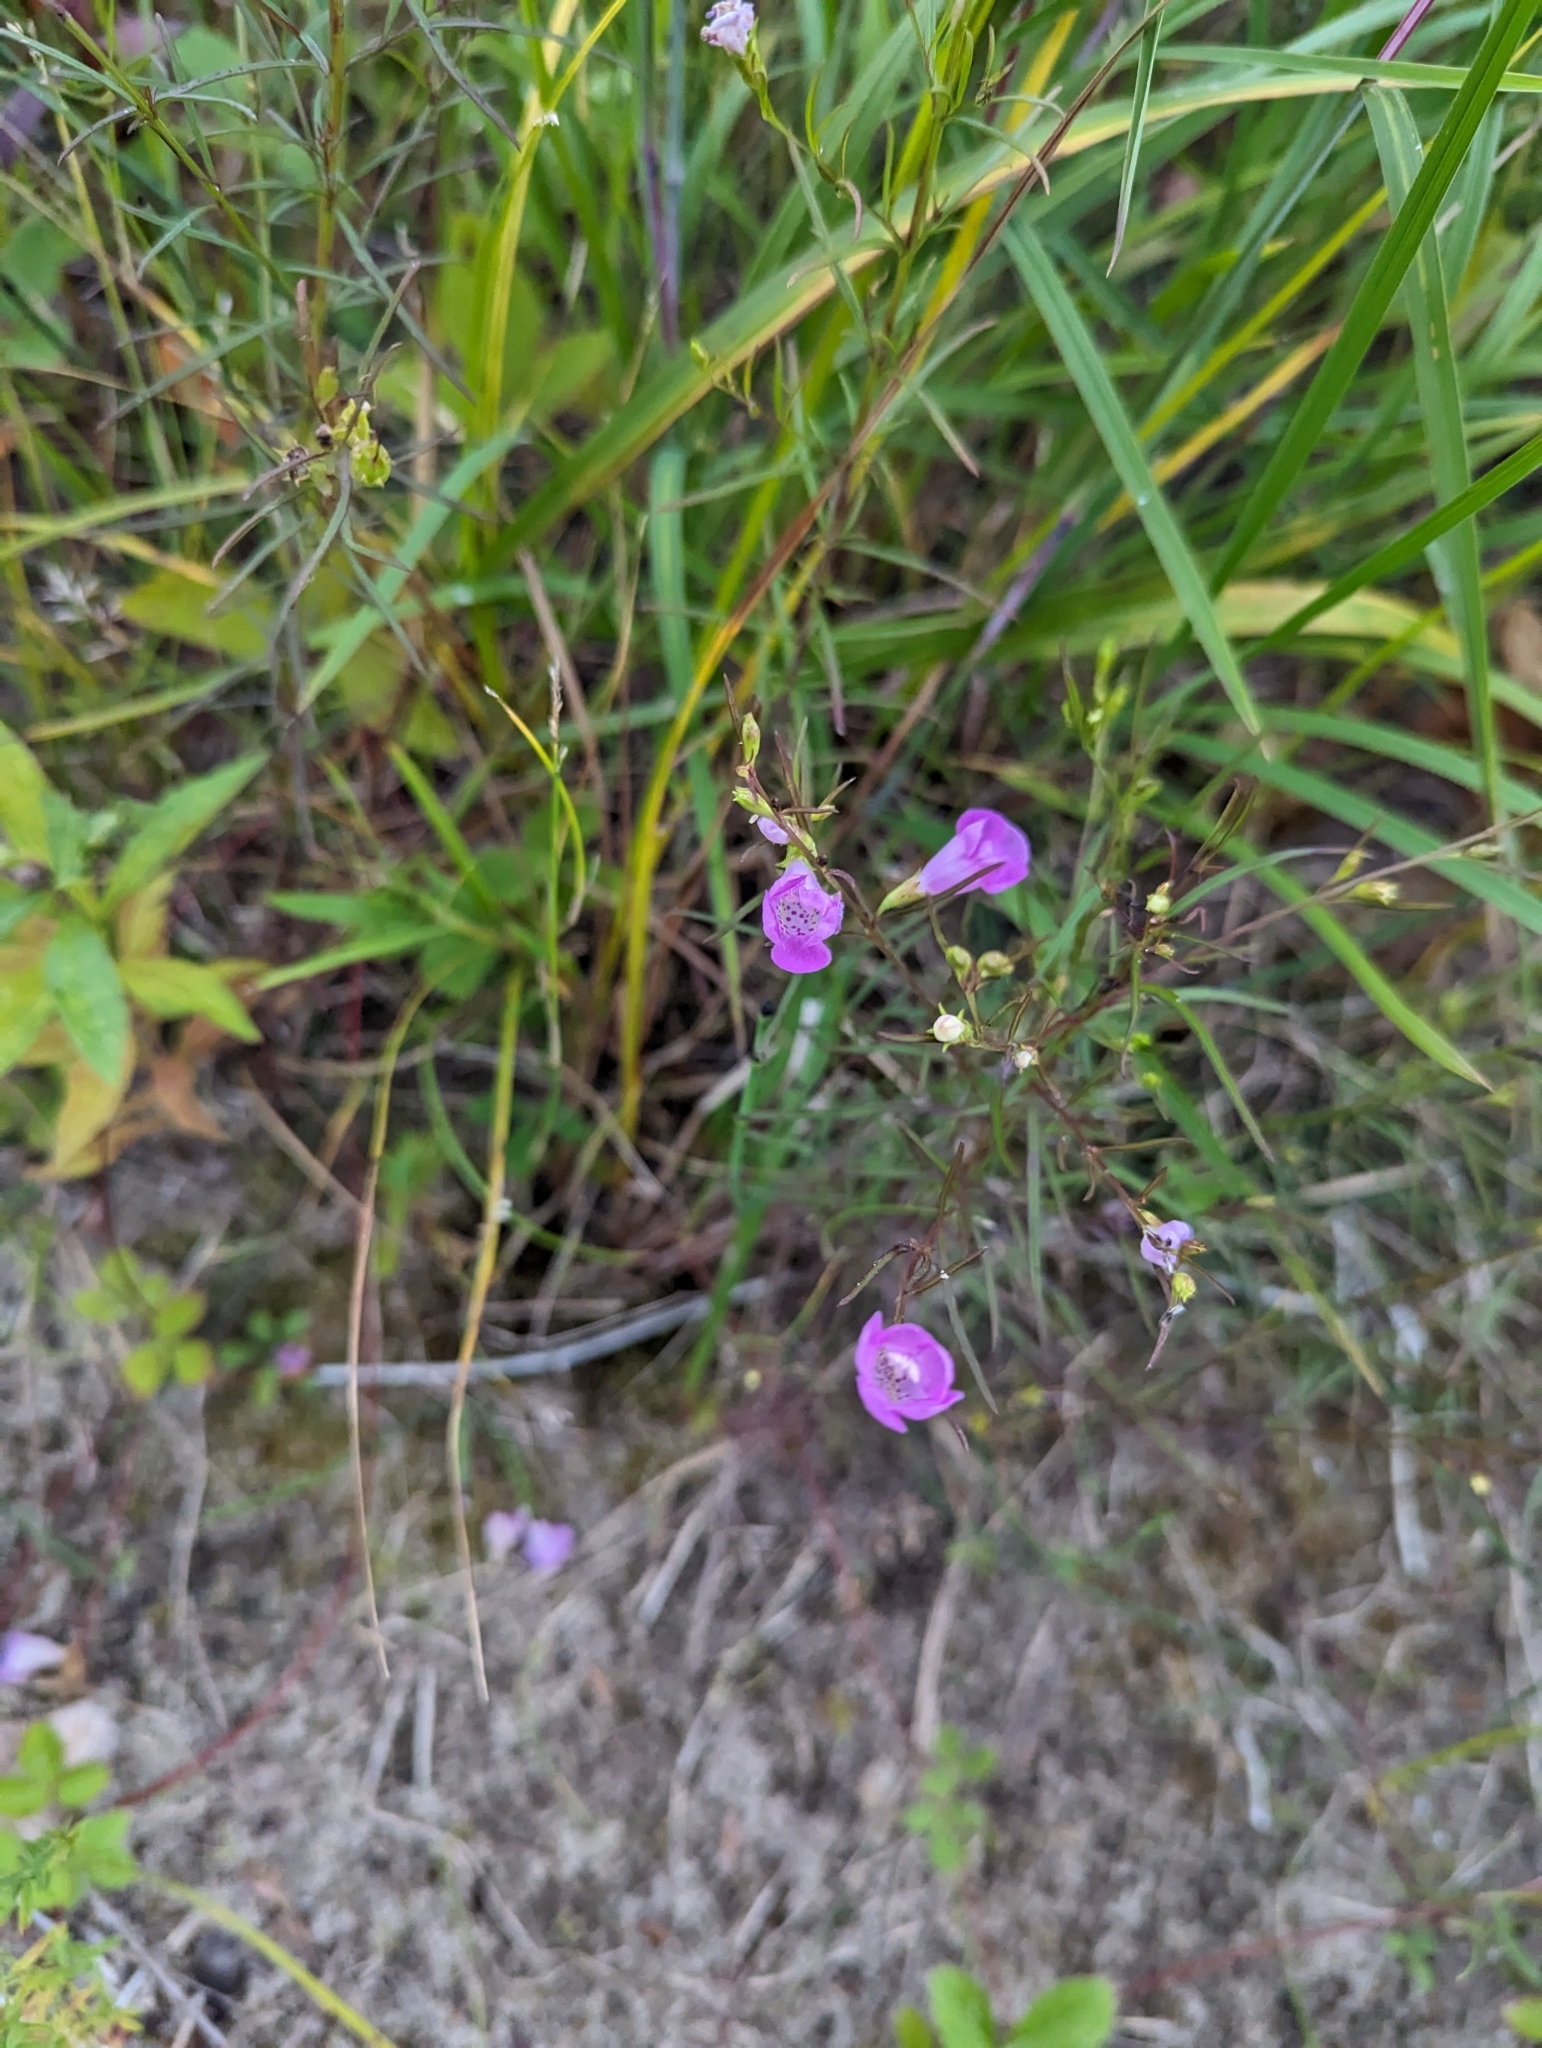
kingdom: Plantae
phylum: Tracheophyta
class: Magnoliopsida
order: Lamiales
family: Orobanchaceae
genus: Agalinis
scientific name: Agalinis purpurea
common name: Purple false foxglove
